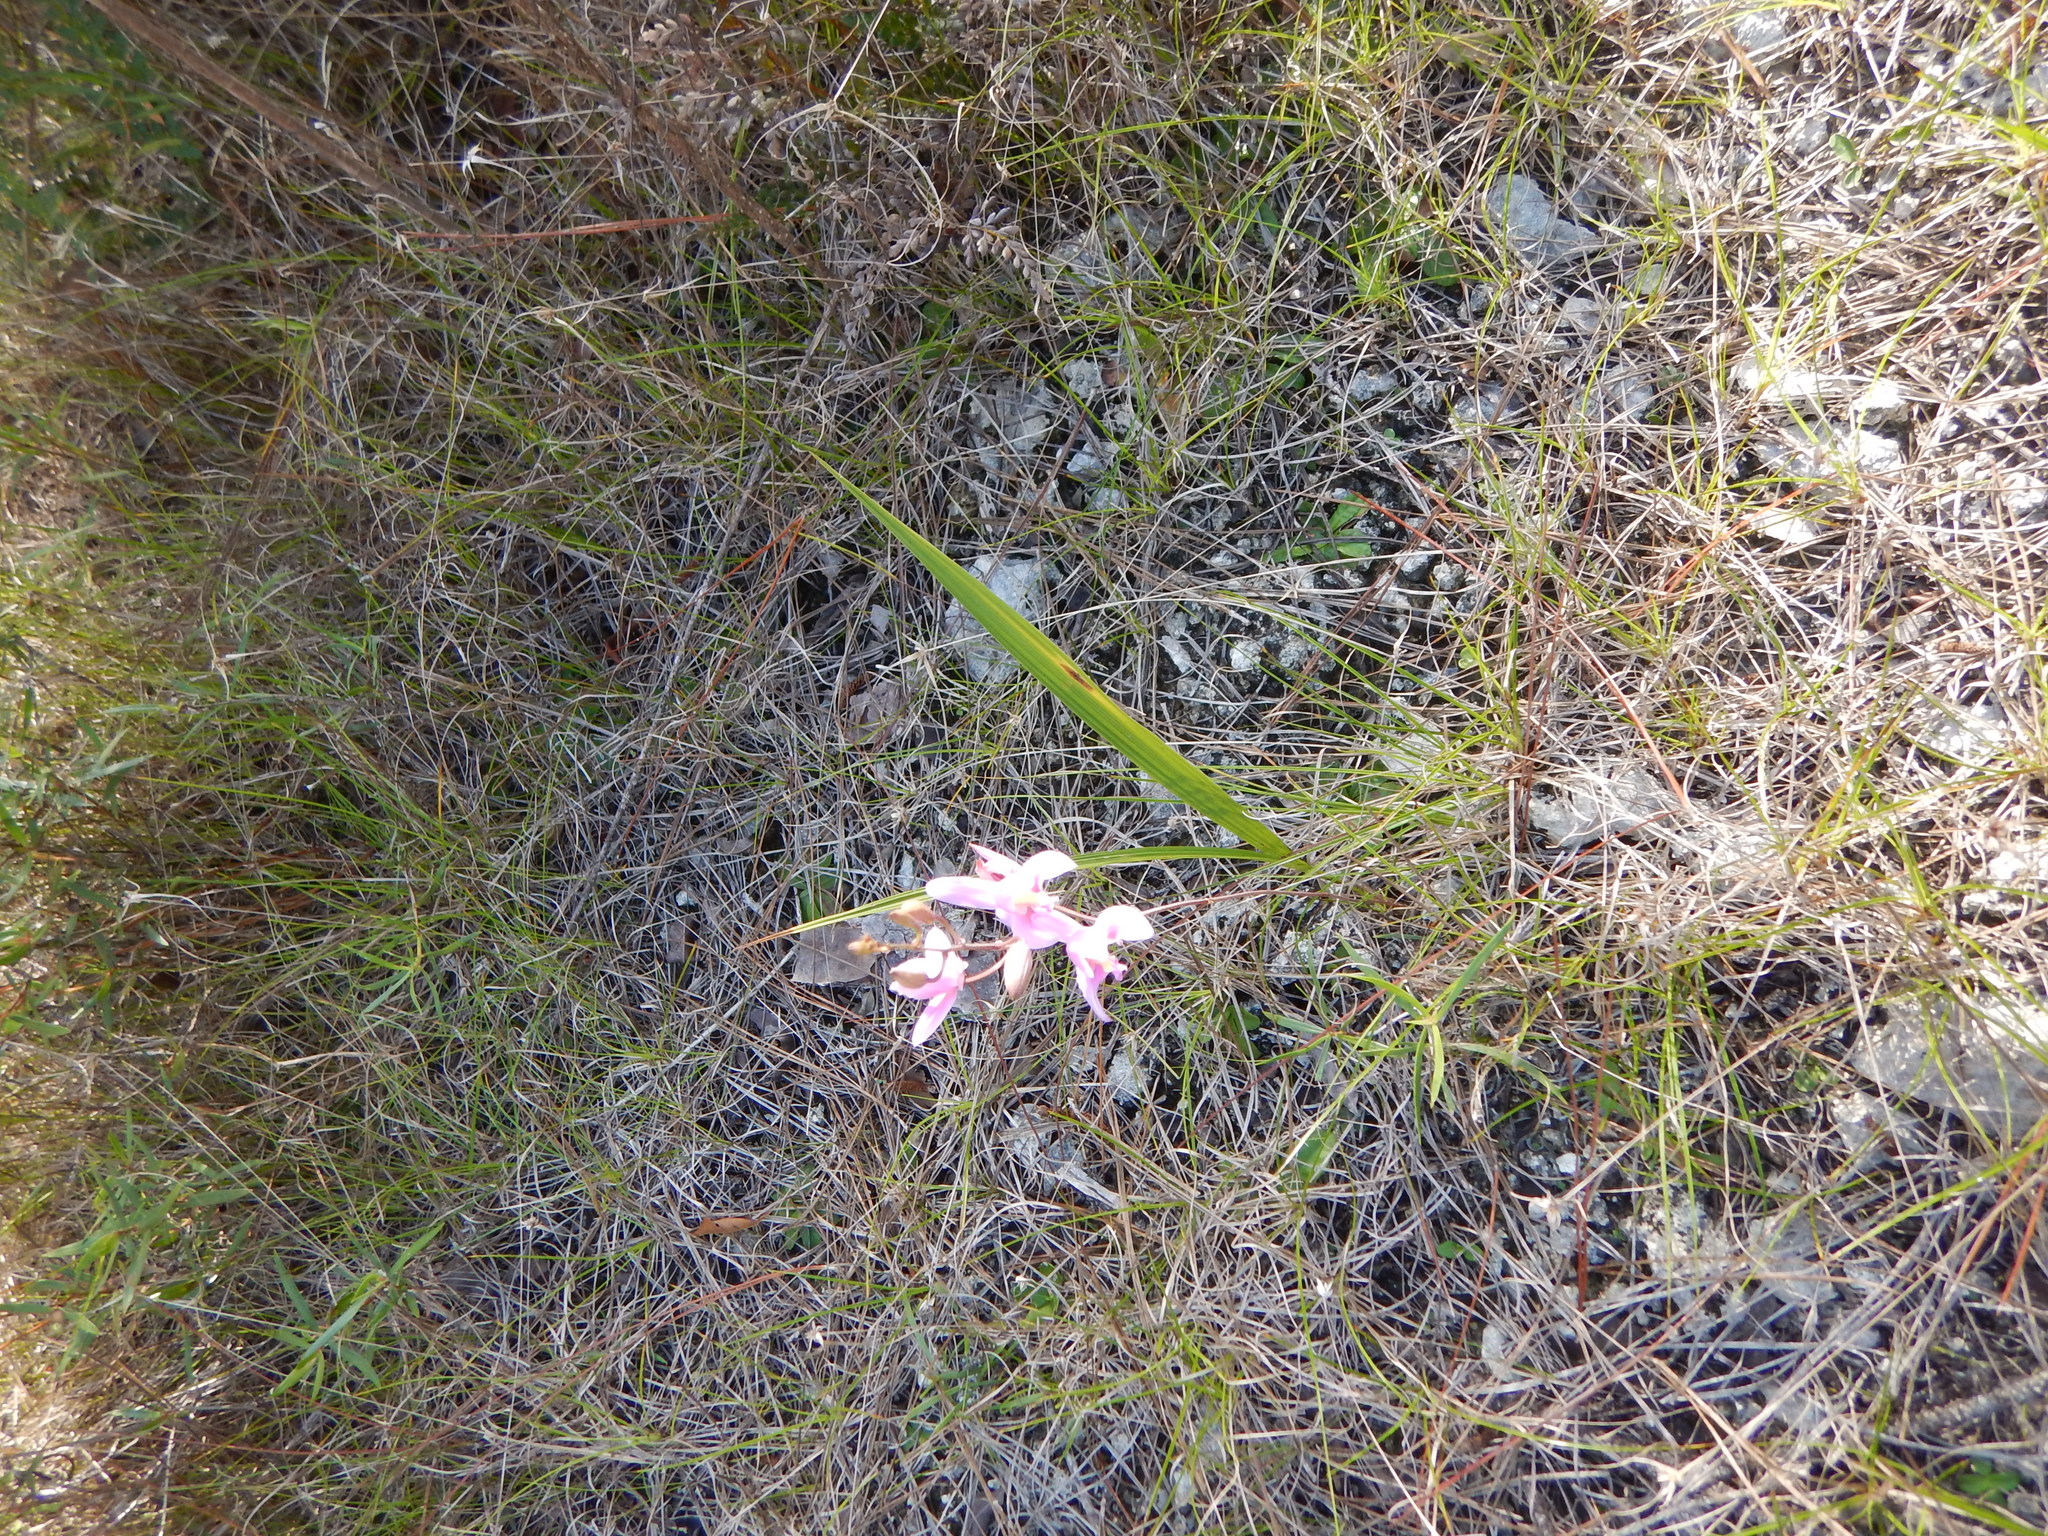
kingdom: Plantae
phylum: Tracheophyta
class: Liliopsida
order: Asparagales
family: Orchidaceae
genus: Bletia
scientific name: Bletia purpurea
